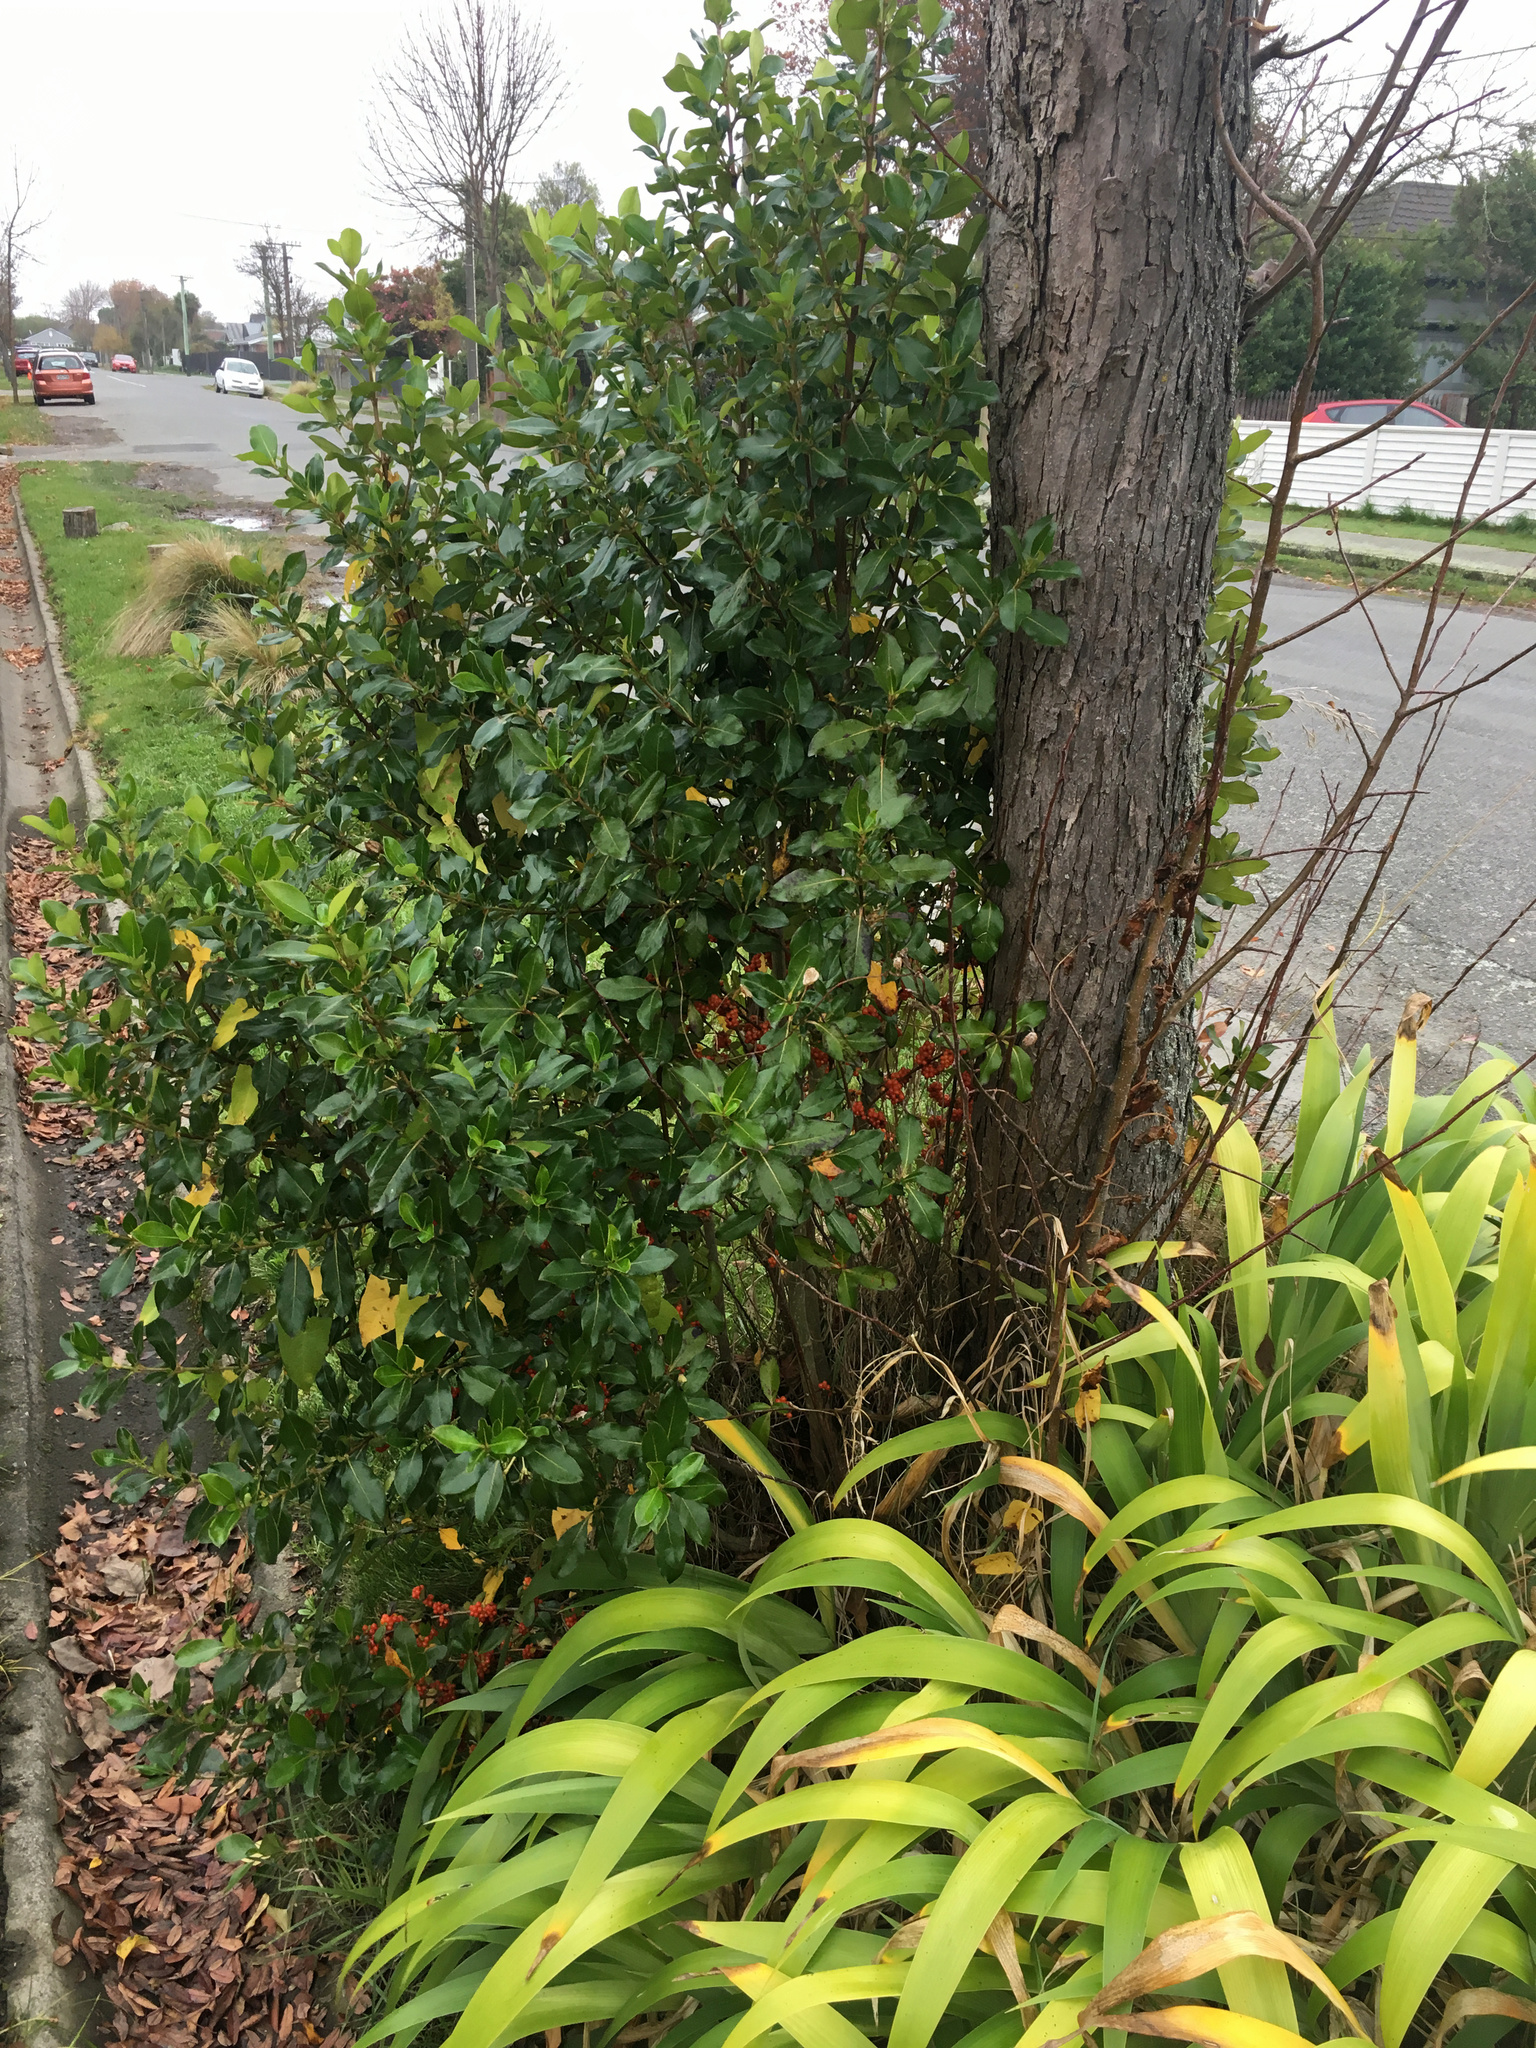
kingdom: Plantae
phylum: Tracheophyta
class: Magnoliopsida
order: Gentianales
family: Rubiaceae
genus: Coprosma
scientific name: Coprosma robusta
